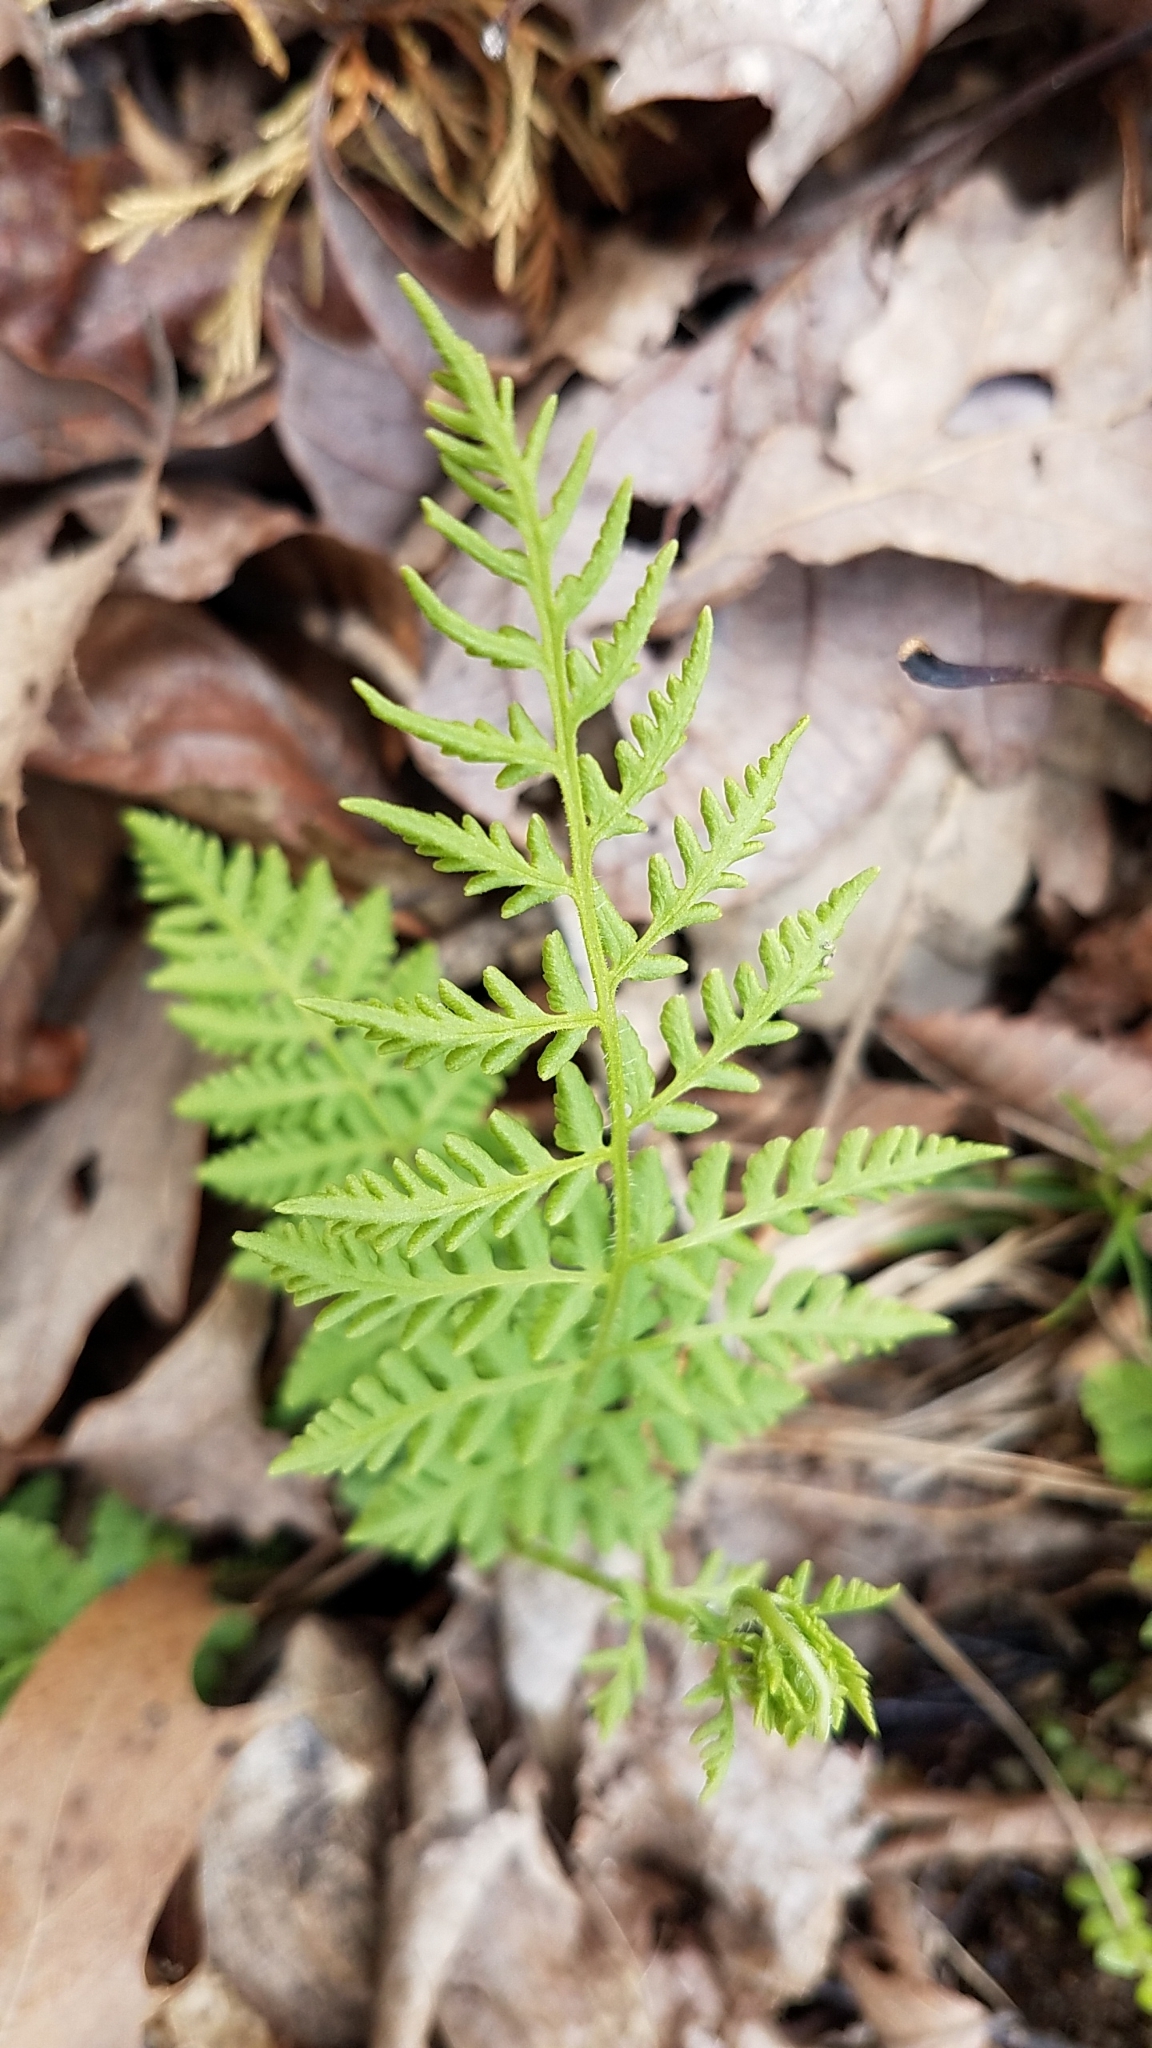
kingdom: Plantae
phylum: Tracheophyta
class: Polypodiopsida
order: Polypodiales
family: Woodsiaceae
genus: Physematium
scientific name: Physematium obtusum
